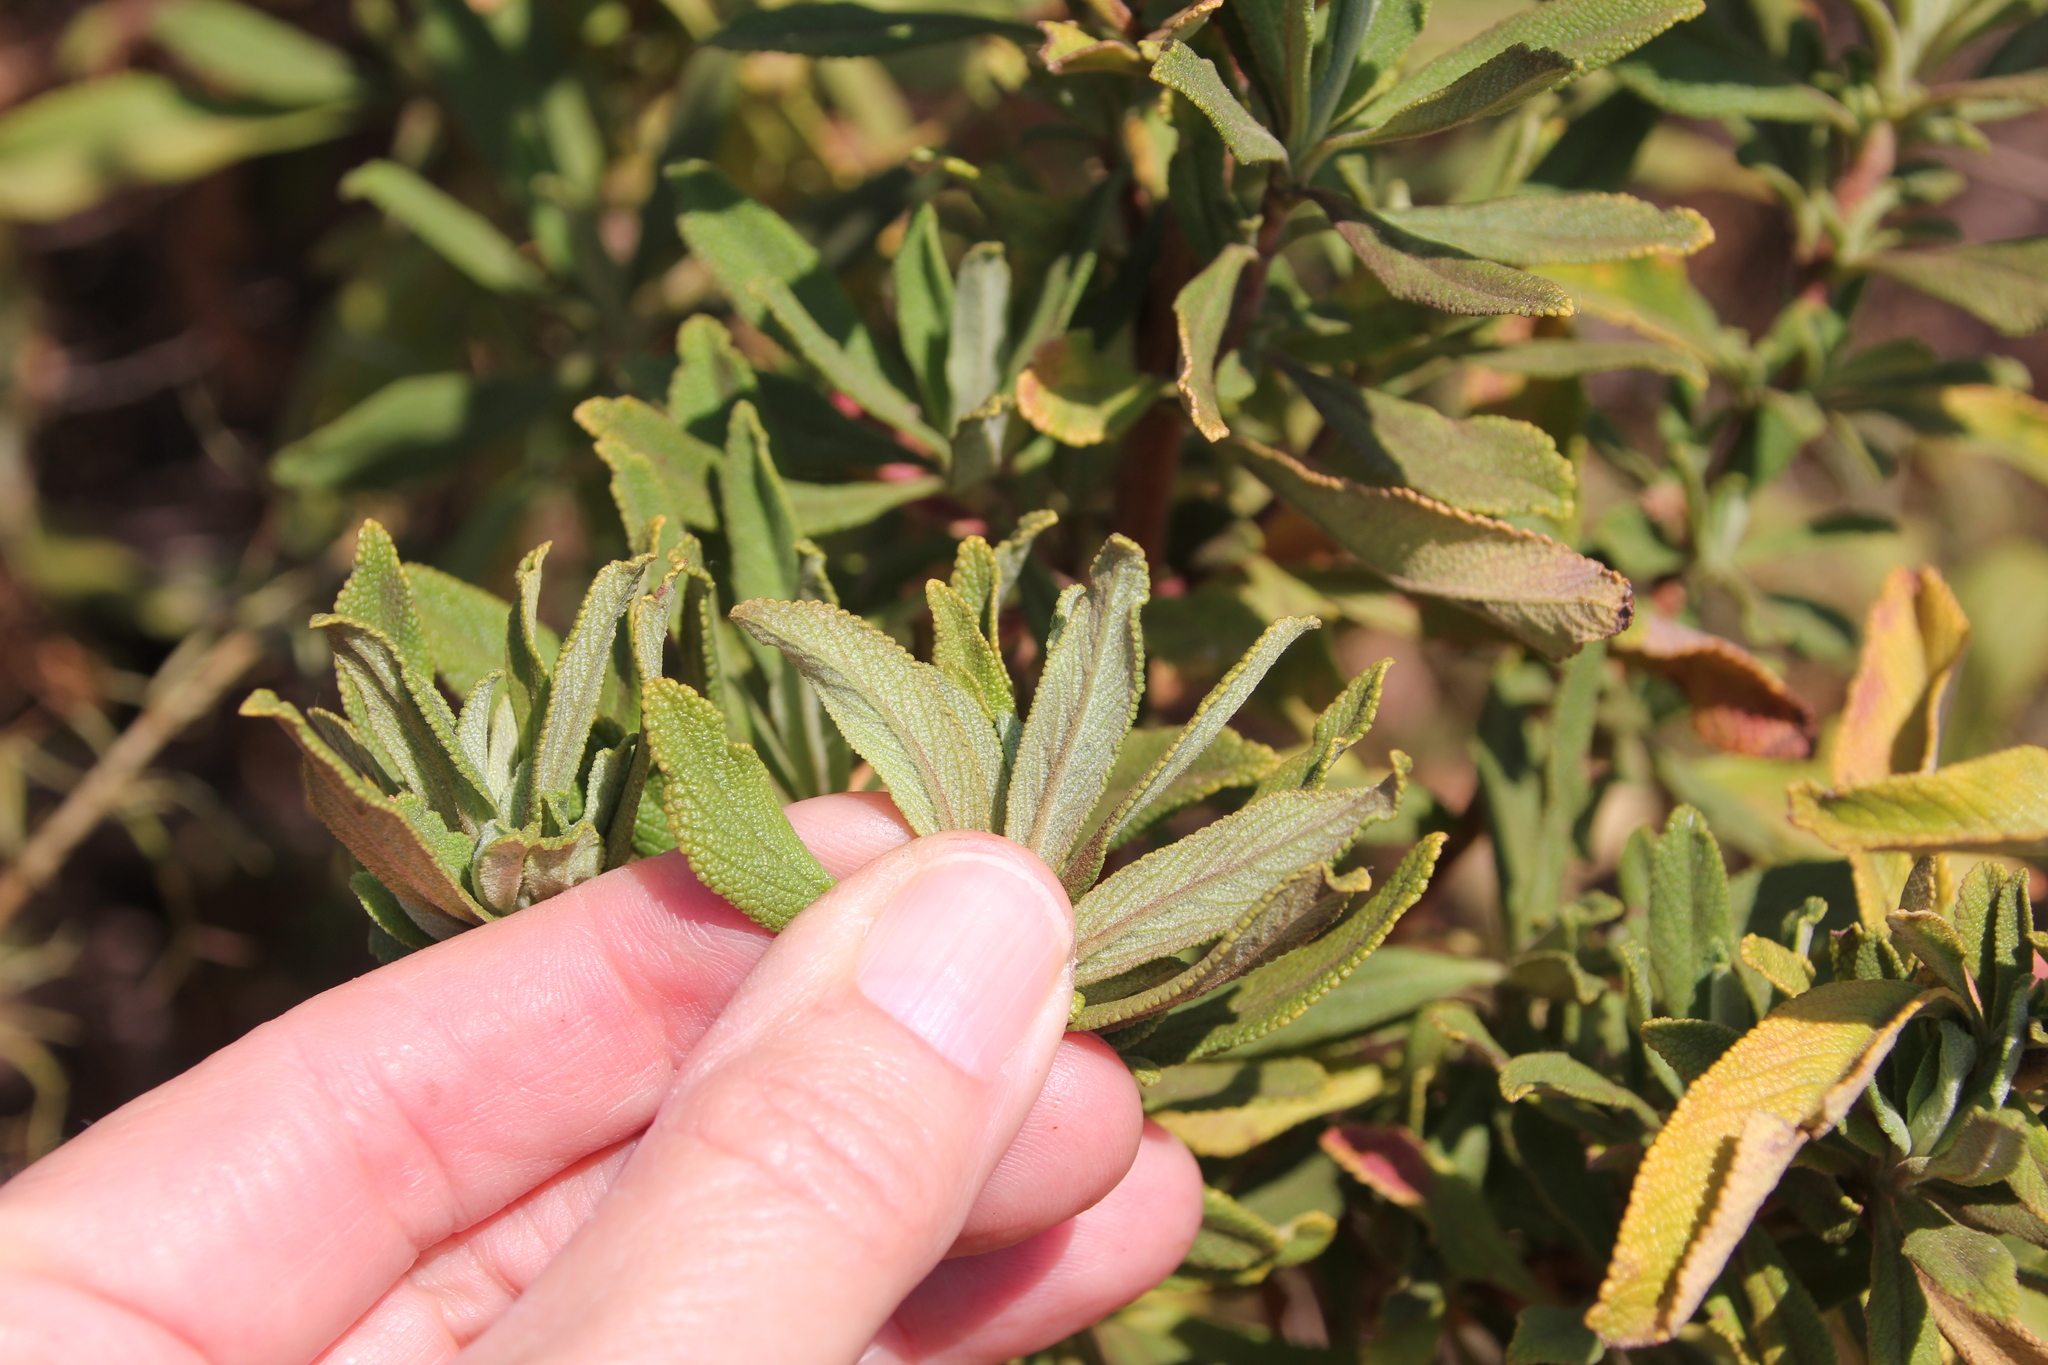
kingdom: Plantae
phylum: Tracheophyta
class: Magnoliopsida
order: Lamiales
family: Lamiaceae
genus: Salvia
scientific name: Salvia mellifera
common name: Black sage
